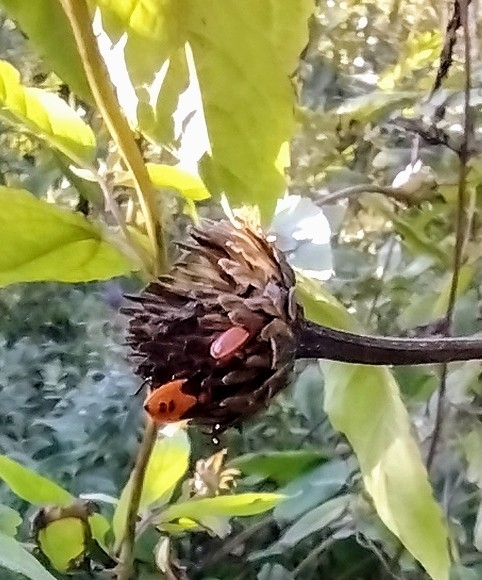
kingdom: Animalia
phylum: Arthropoda
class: Insecta
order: Hemiptera
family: Lygaeidae
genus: Lygaeus
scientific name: Lygaeus turcicus
